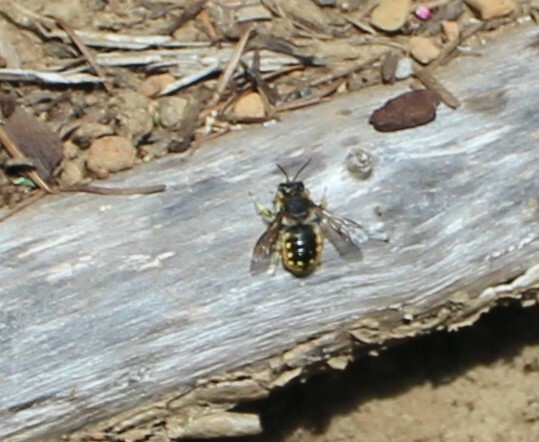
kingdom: Animalia
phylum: Arthropoda
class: Insecta
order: Hymenoptera
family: Megachilidae
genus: Anthidium
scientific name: Anthidium manicatum
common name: Wool carder bee
